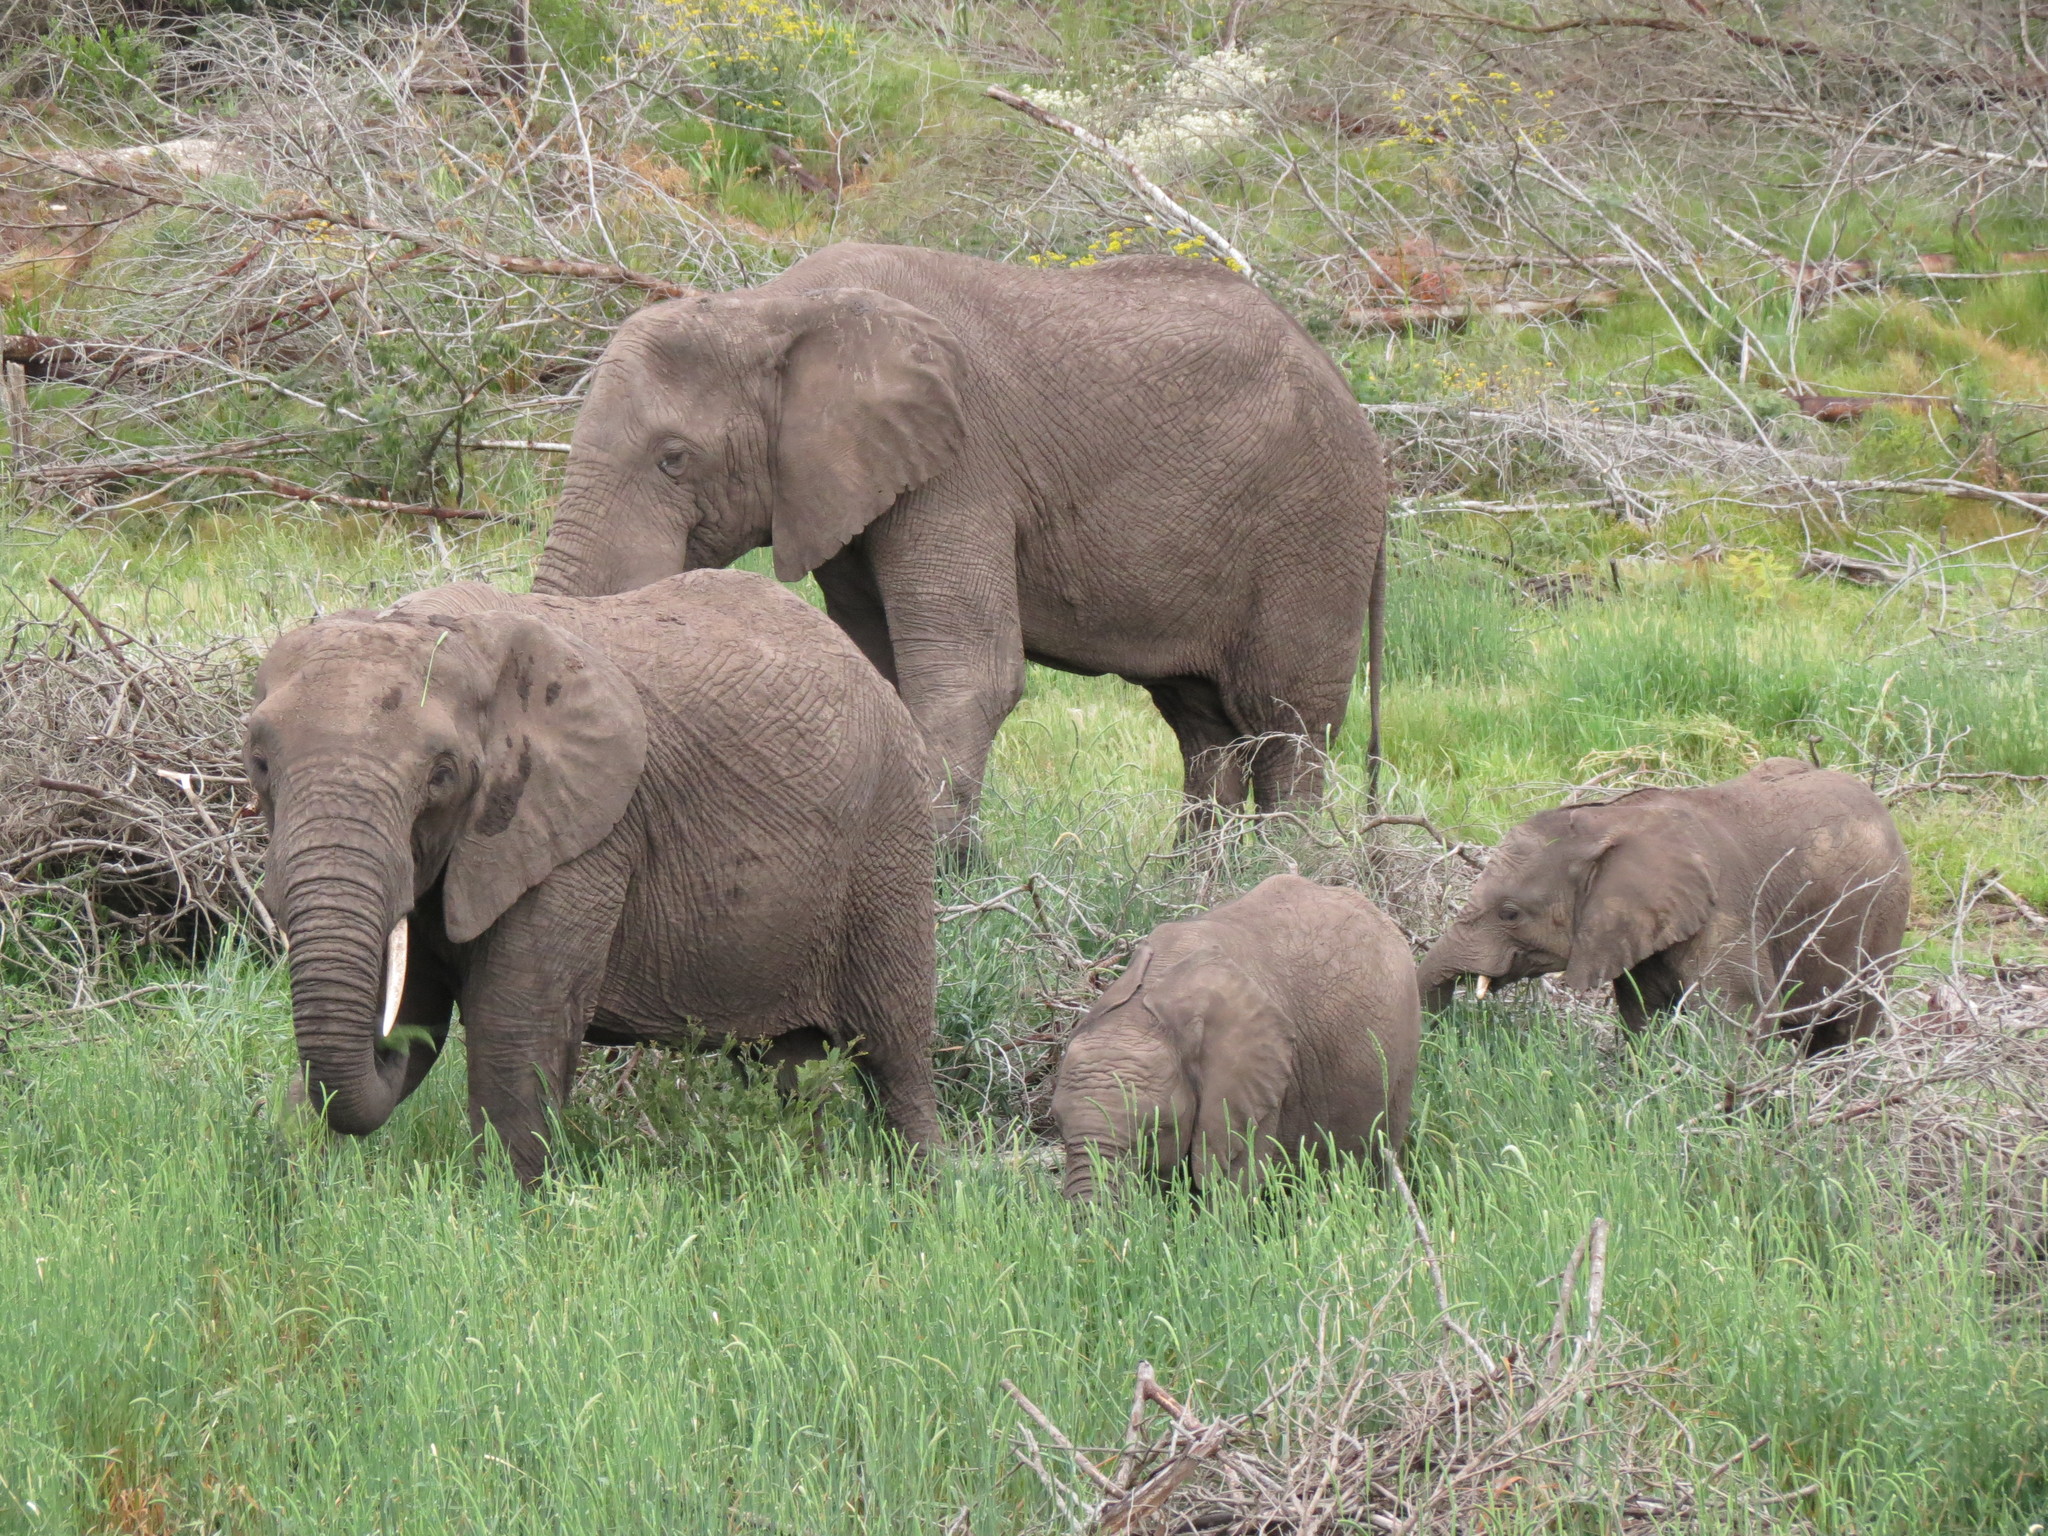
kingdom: Animalia
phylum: Chordata
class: Mammalia
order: Proboscidea
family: Elephantidae
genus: Loxodonta
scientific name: Loxodonta africana
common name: African elephant
